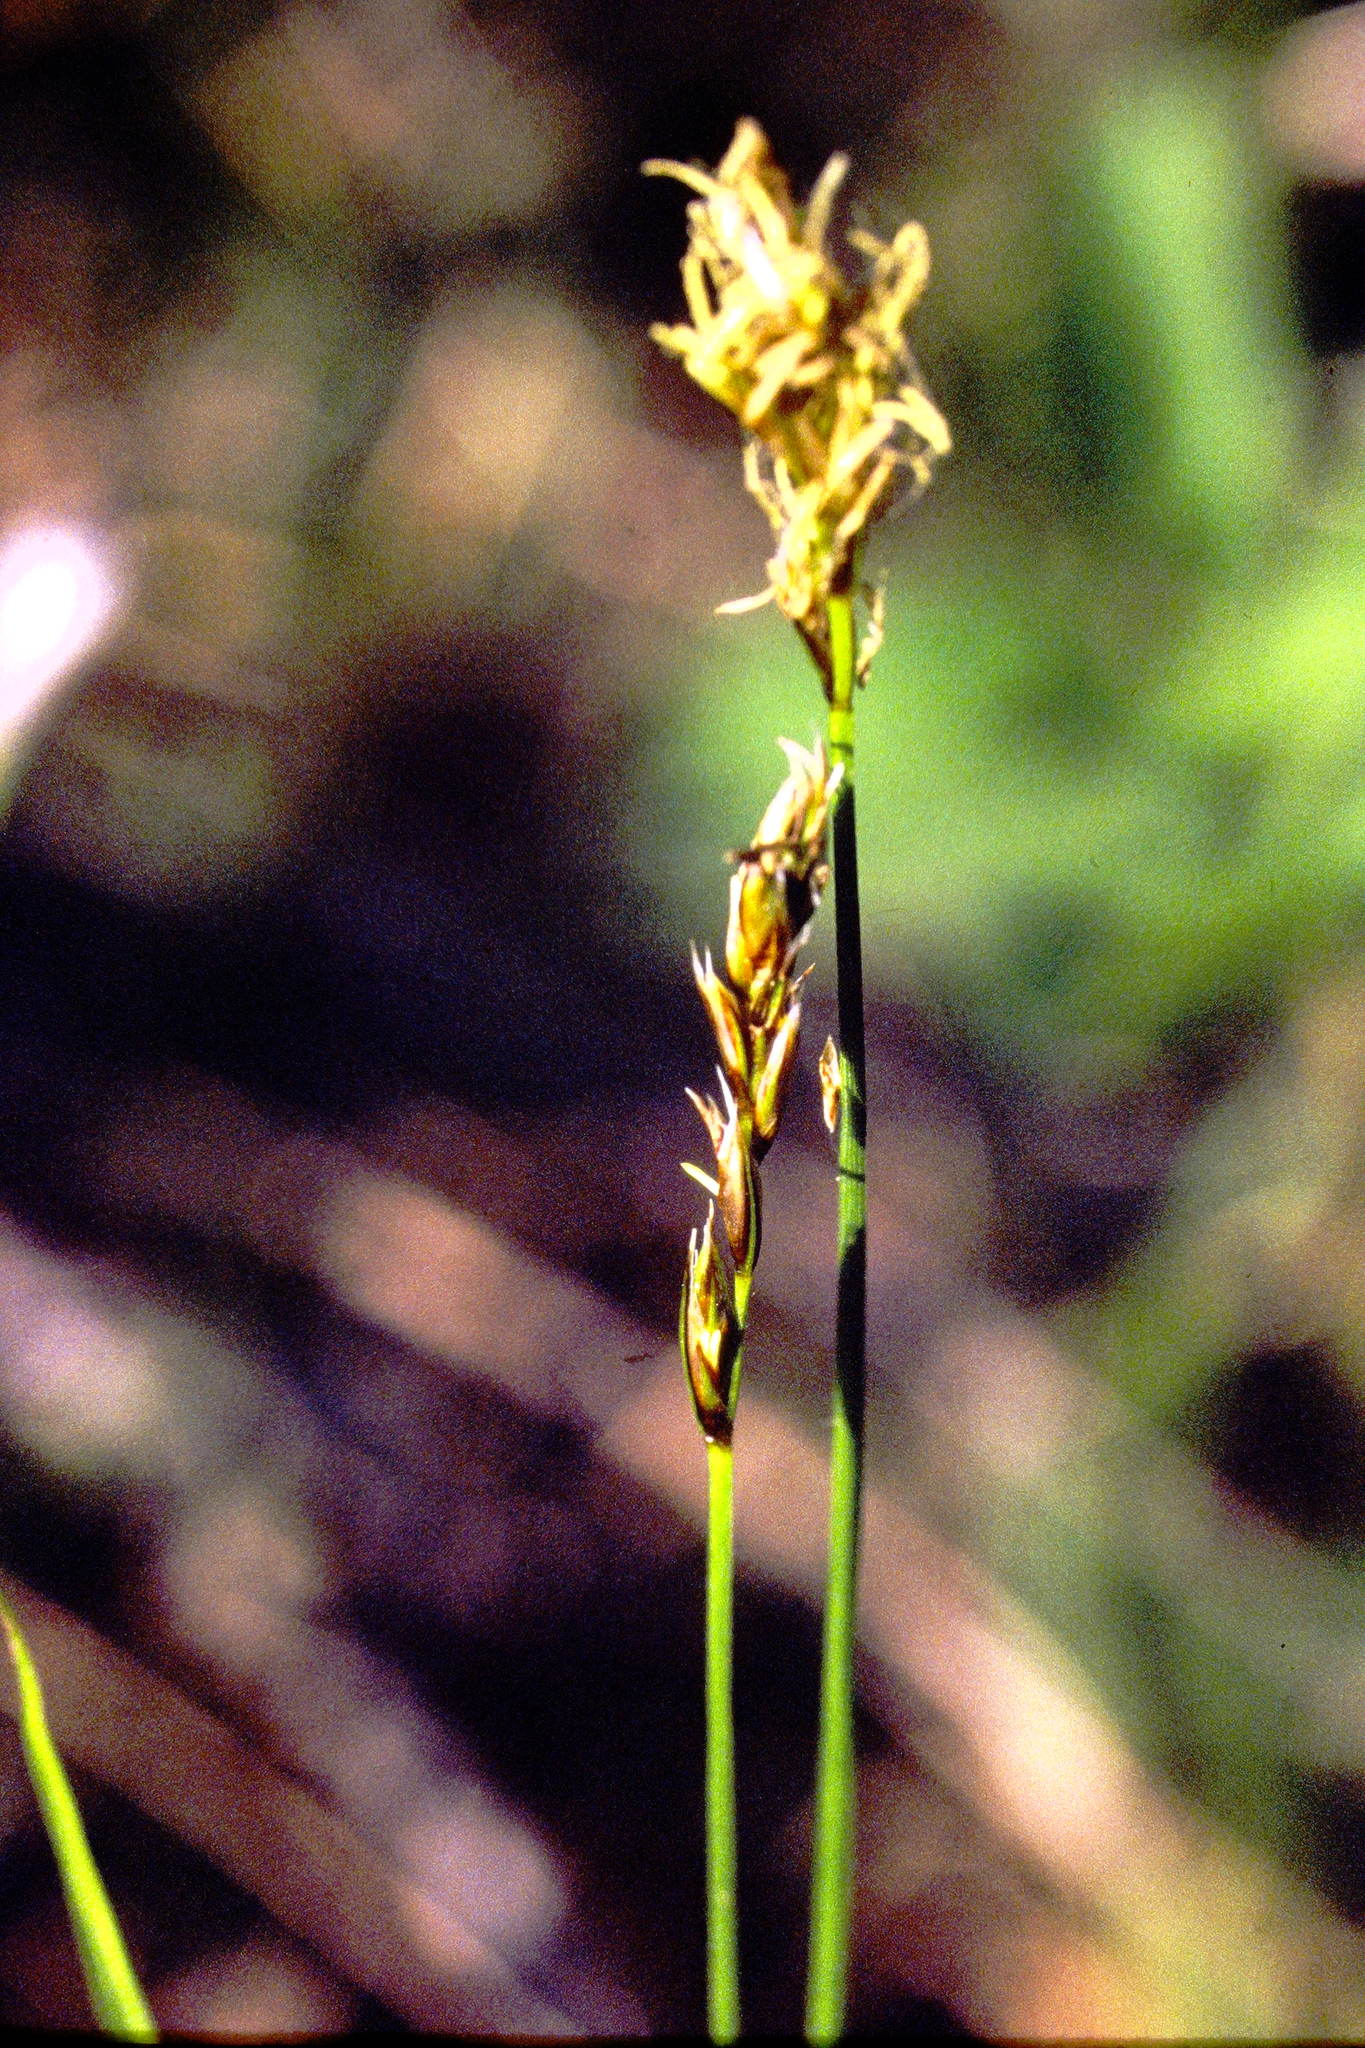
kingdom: Plantae
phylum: Tracheophyta
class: Liliopsida
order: Poales
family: Cyperaceae
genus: Carex
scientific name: Carex siccata
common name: Dry sedge
